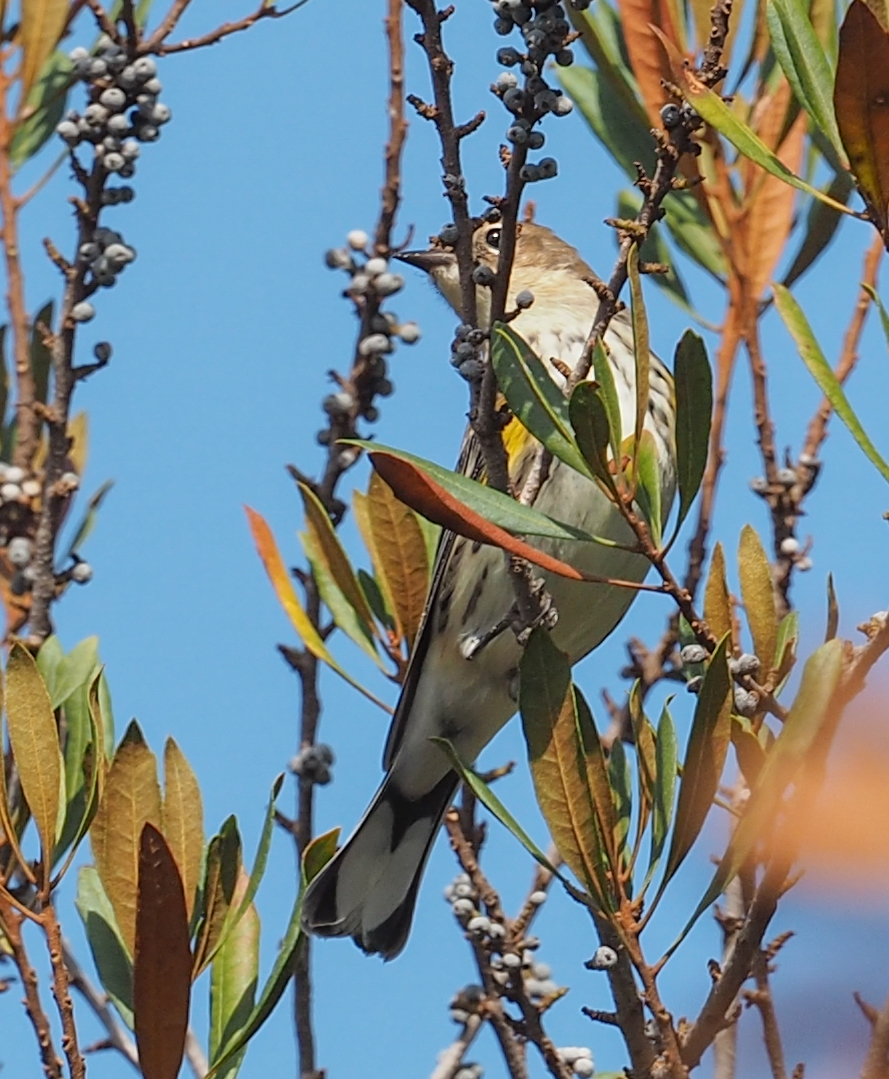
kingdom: Animalia
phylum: Chordata
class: Aves
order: Passeriformes
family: Parulidae
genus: Setophaga
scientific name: Setophaga coronata
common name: Myrtle warbler
